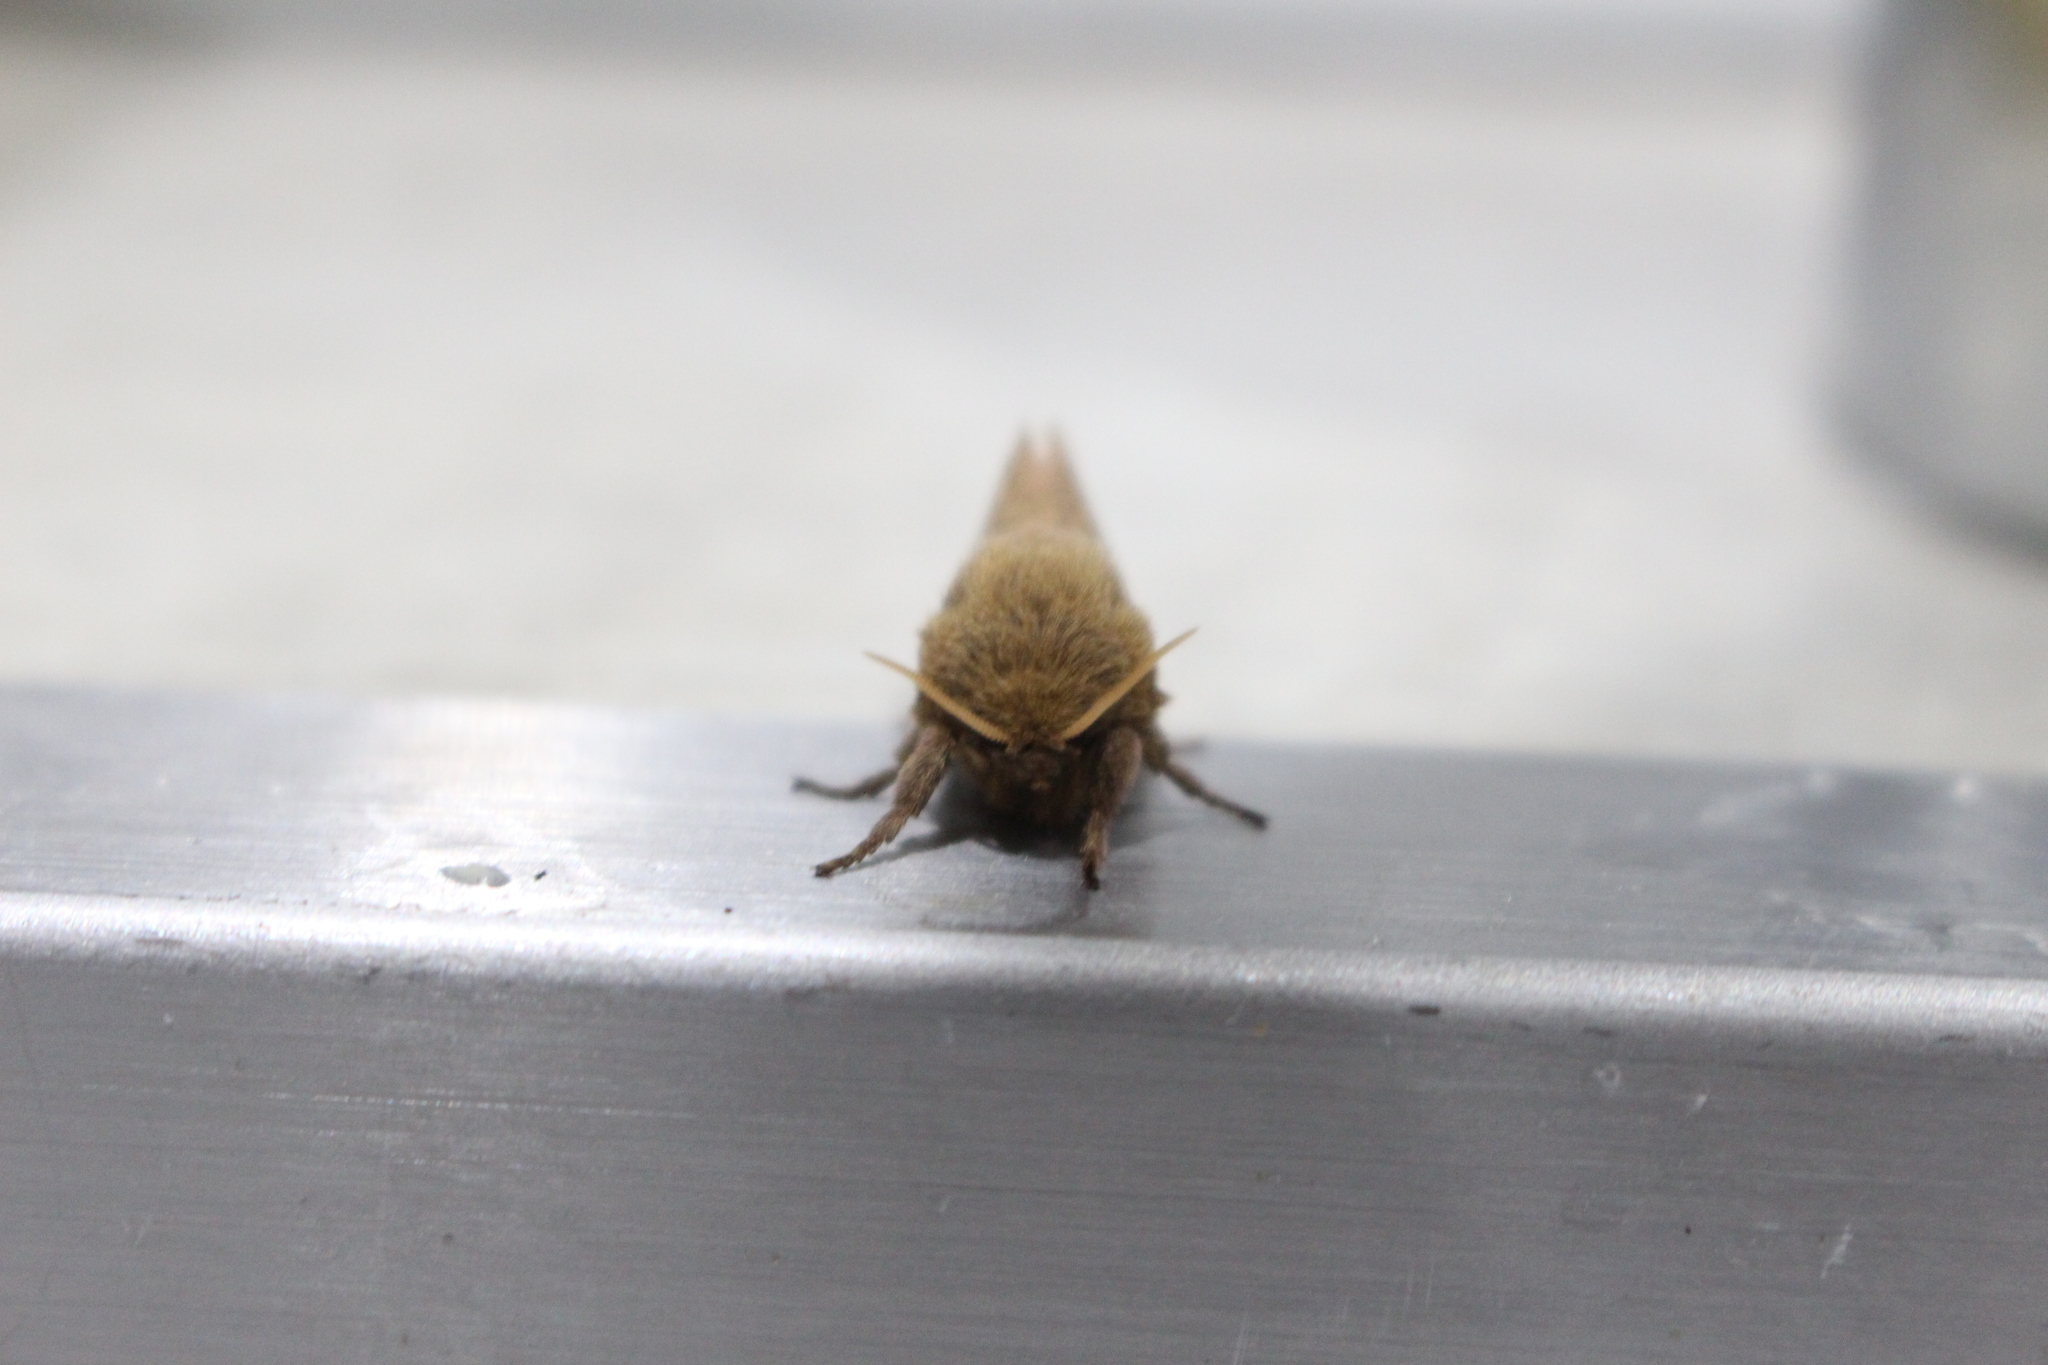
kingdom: Animalia
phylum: Arthropoda
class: Insecta
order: Lepidoptera
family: Hepialidae
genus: Wiseana
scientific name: Wiseana umbraculatus
